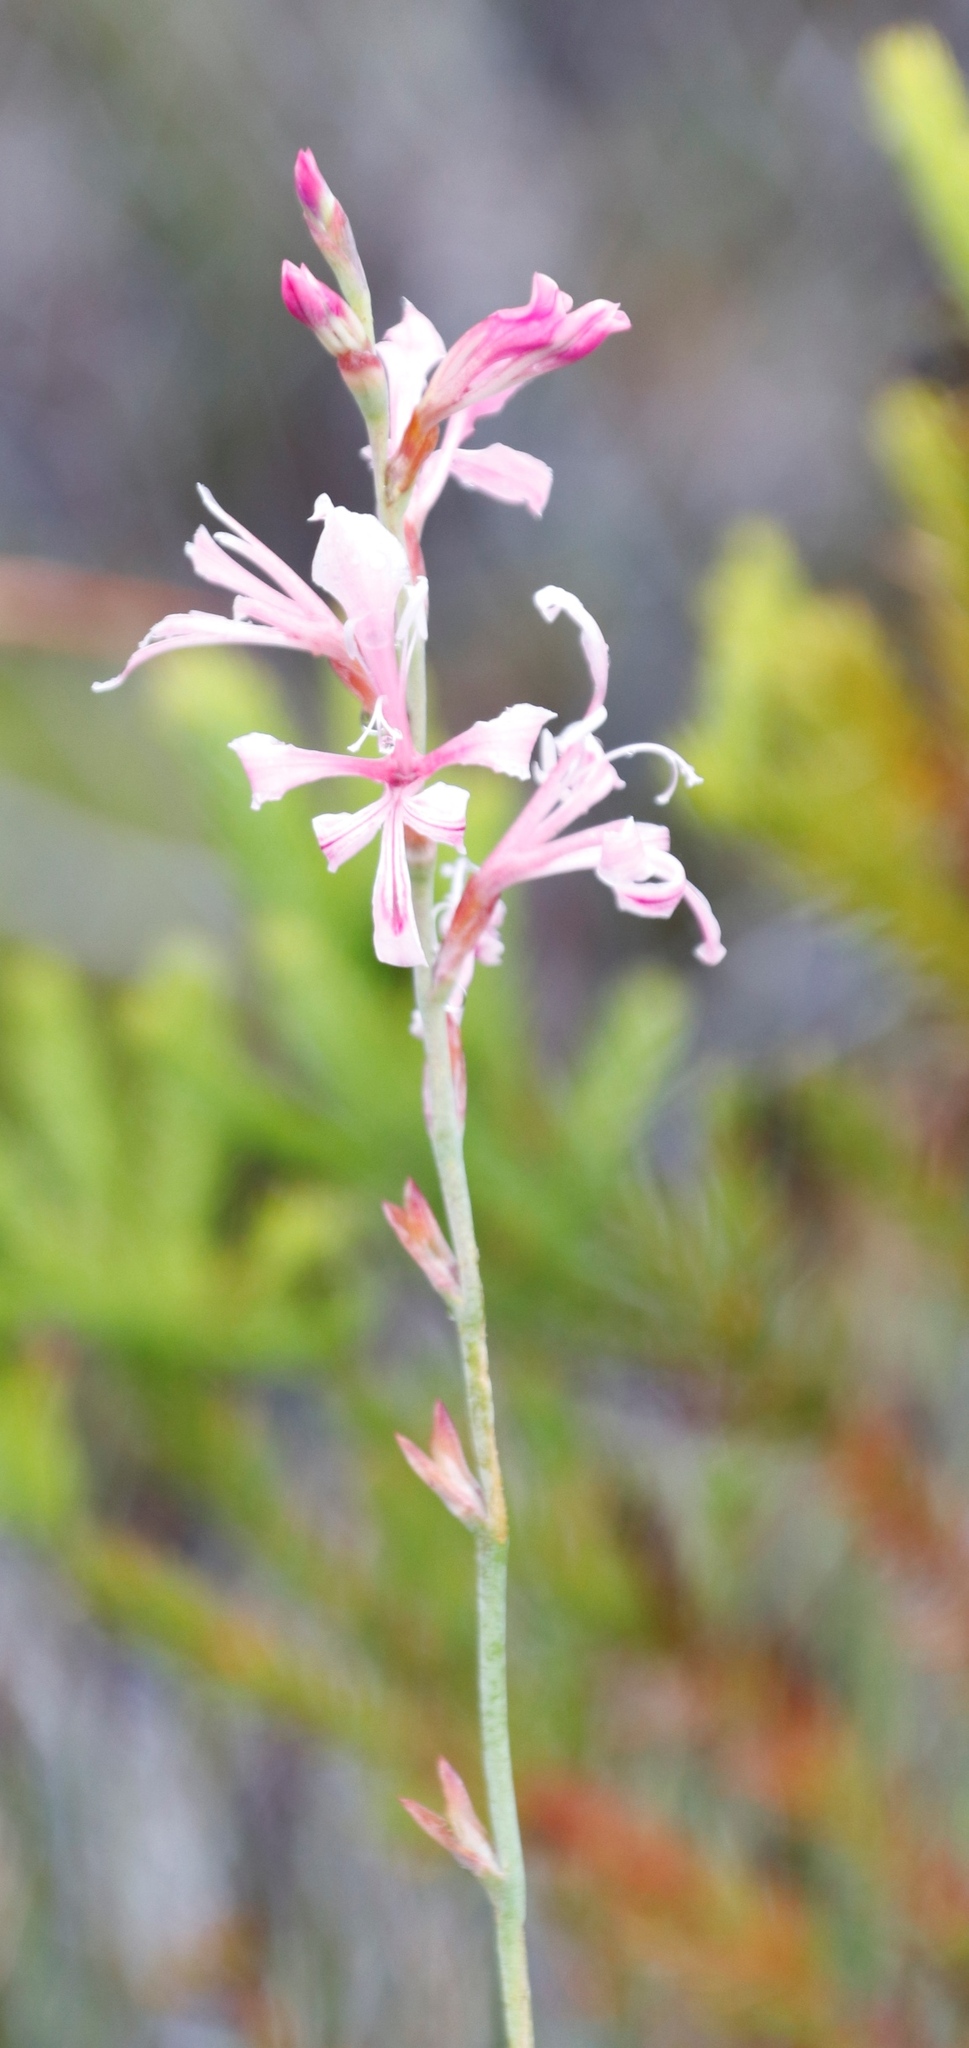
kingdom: Plantae
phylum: Tracheophyta
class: Liliopsida
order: Asparagales
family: Iridaceae
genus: Tritoniopsis
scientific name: Tritoniopsis lata
